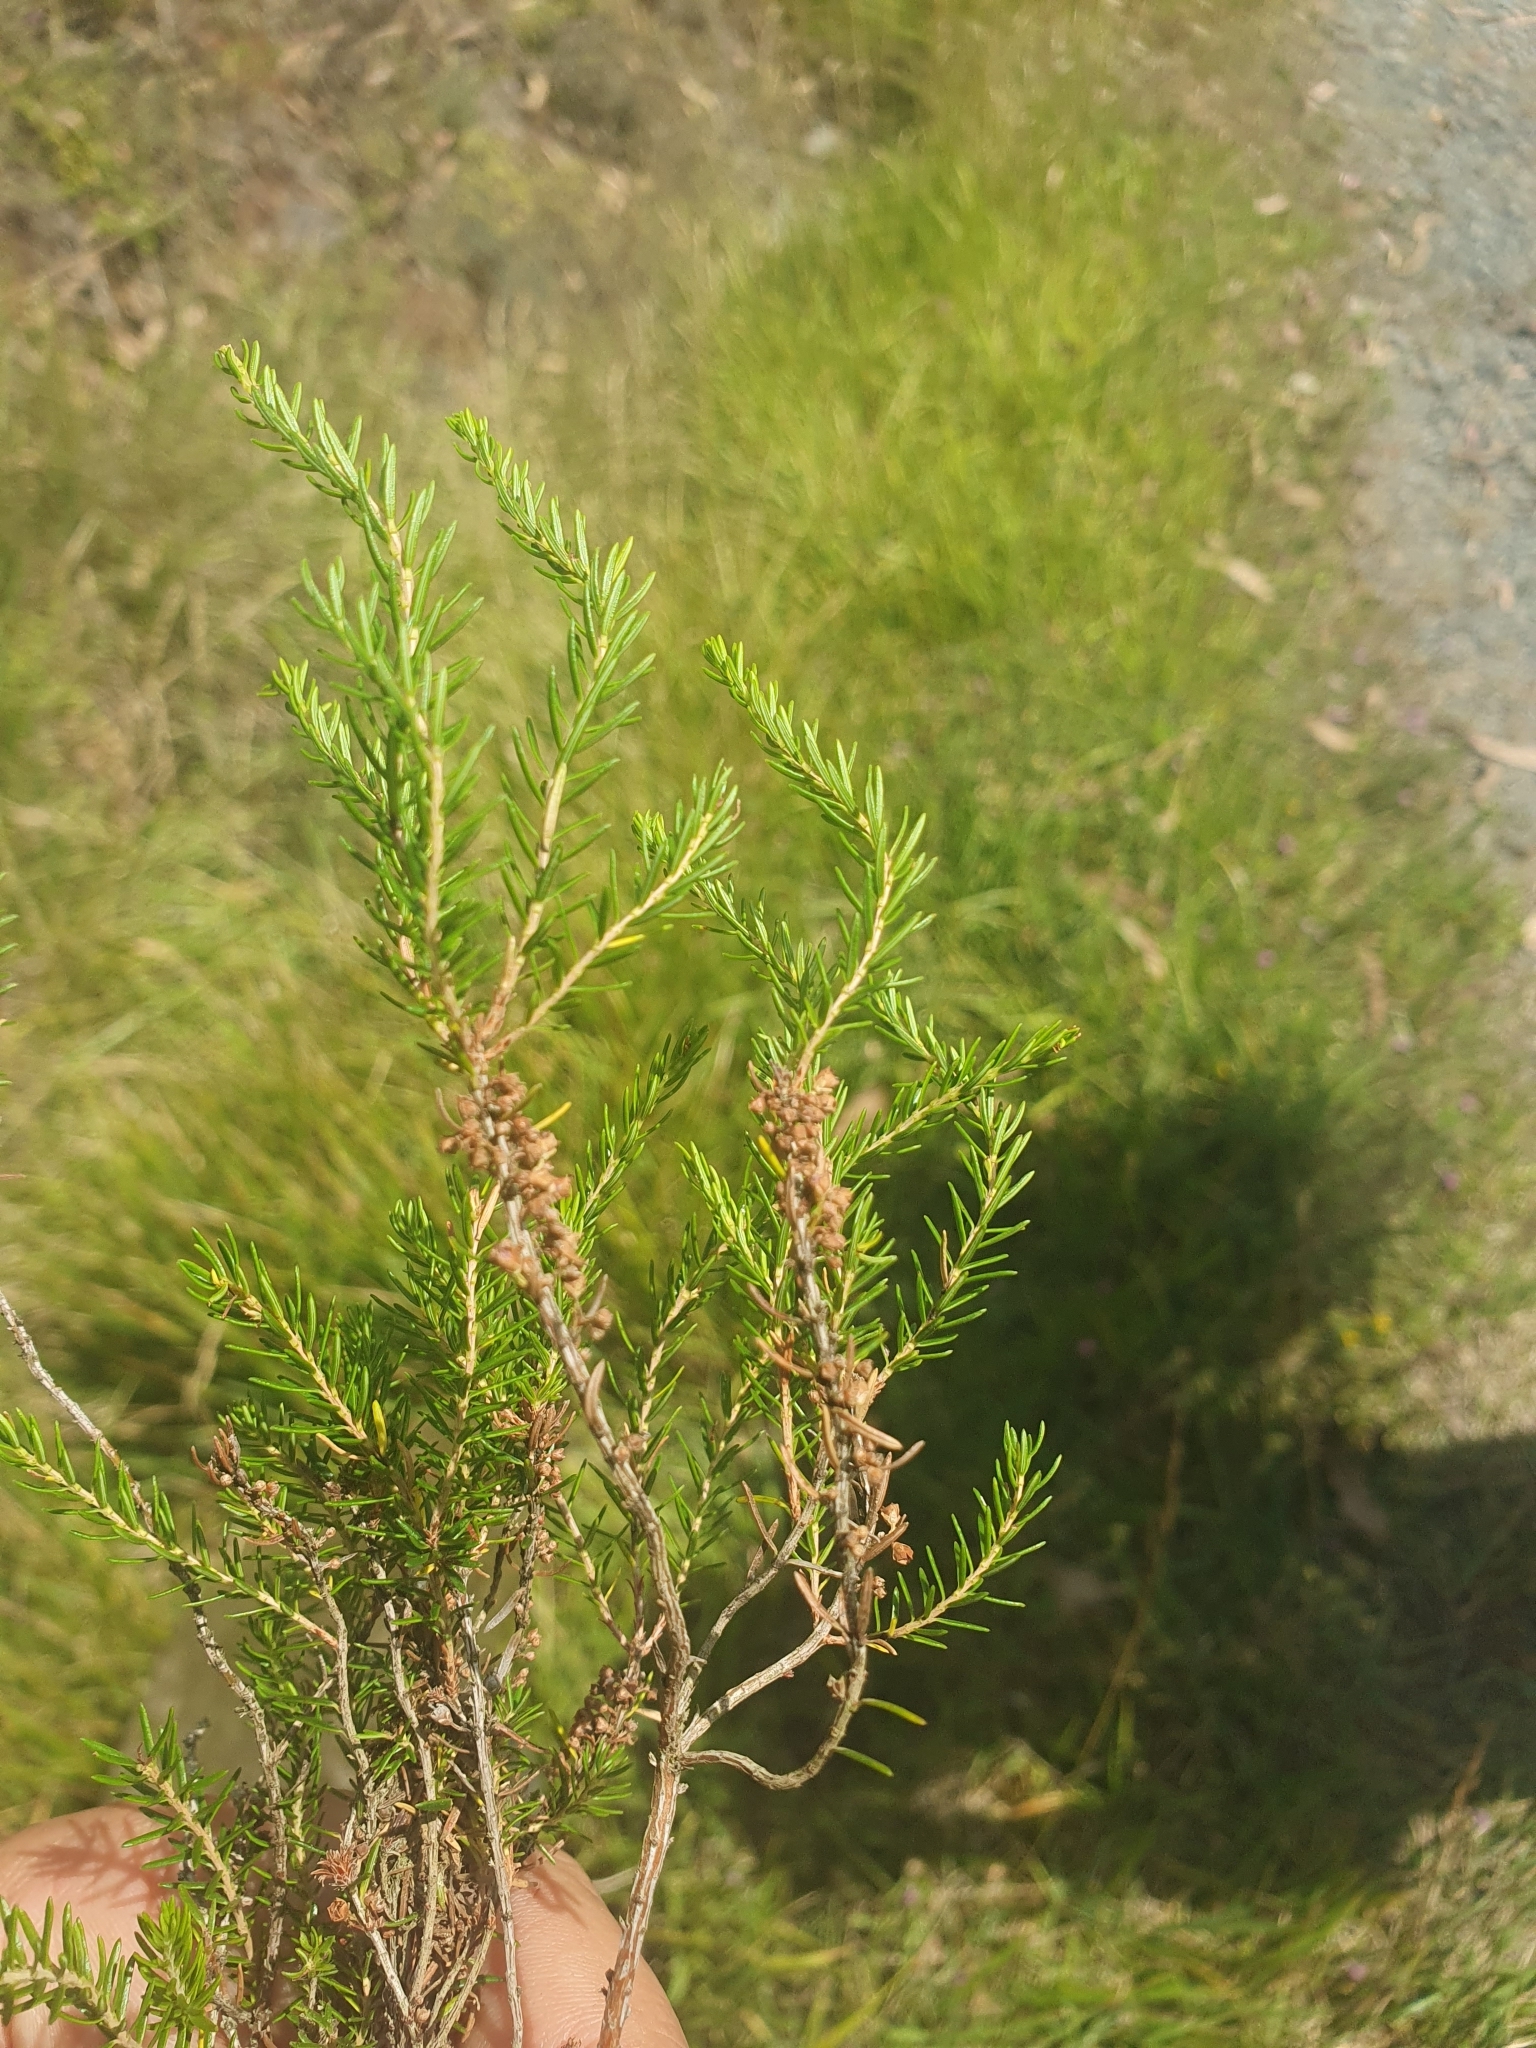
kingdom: Plantae
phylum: Tracheophyta
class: Magnoliopsida
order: Ericales
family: Ericaceae
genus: Erica
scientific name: Erica scoparia
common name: Green heather
